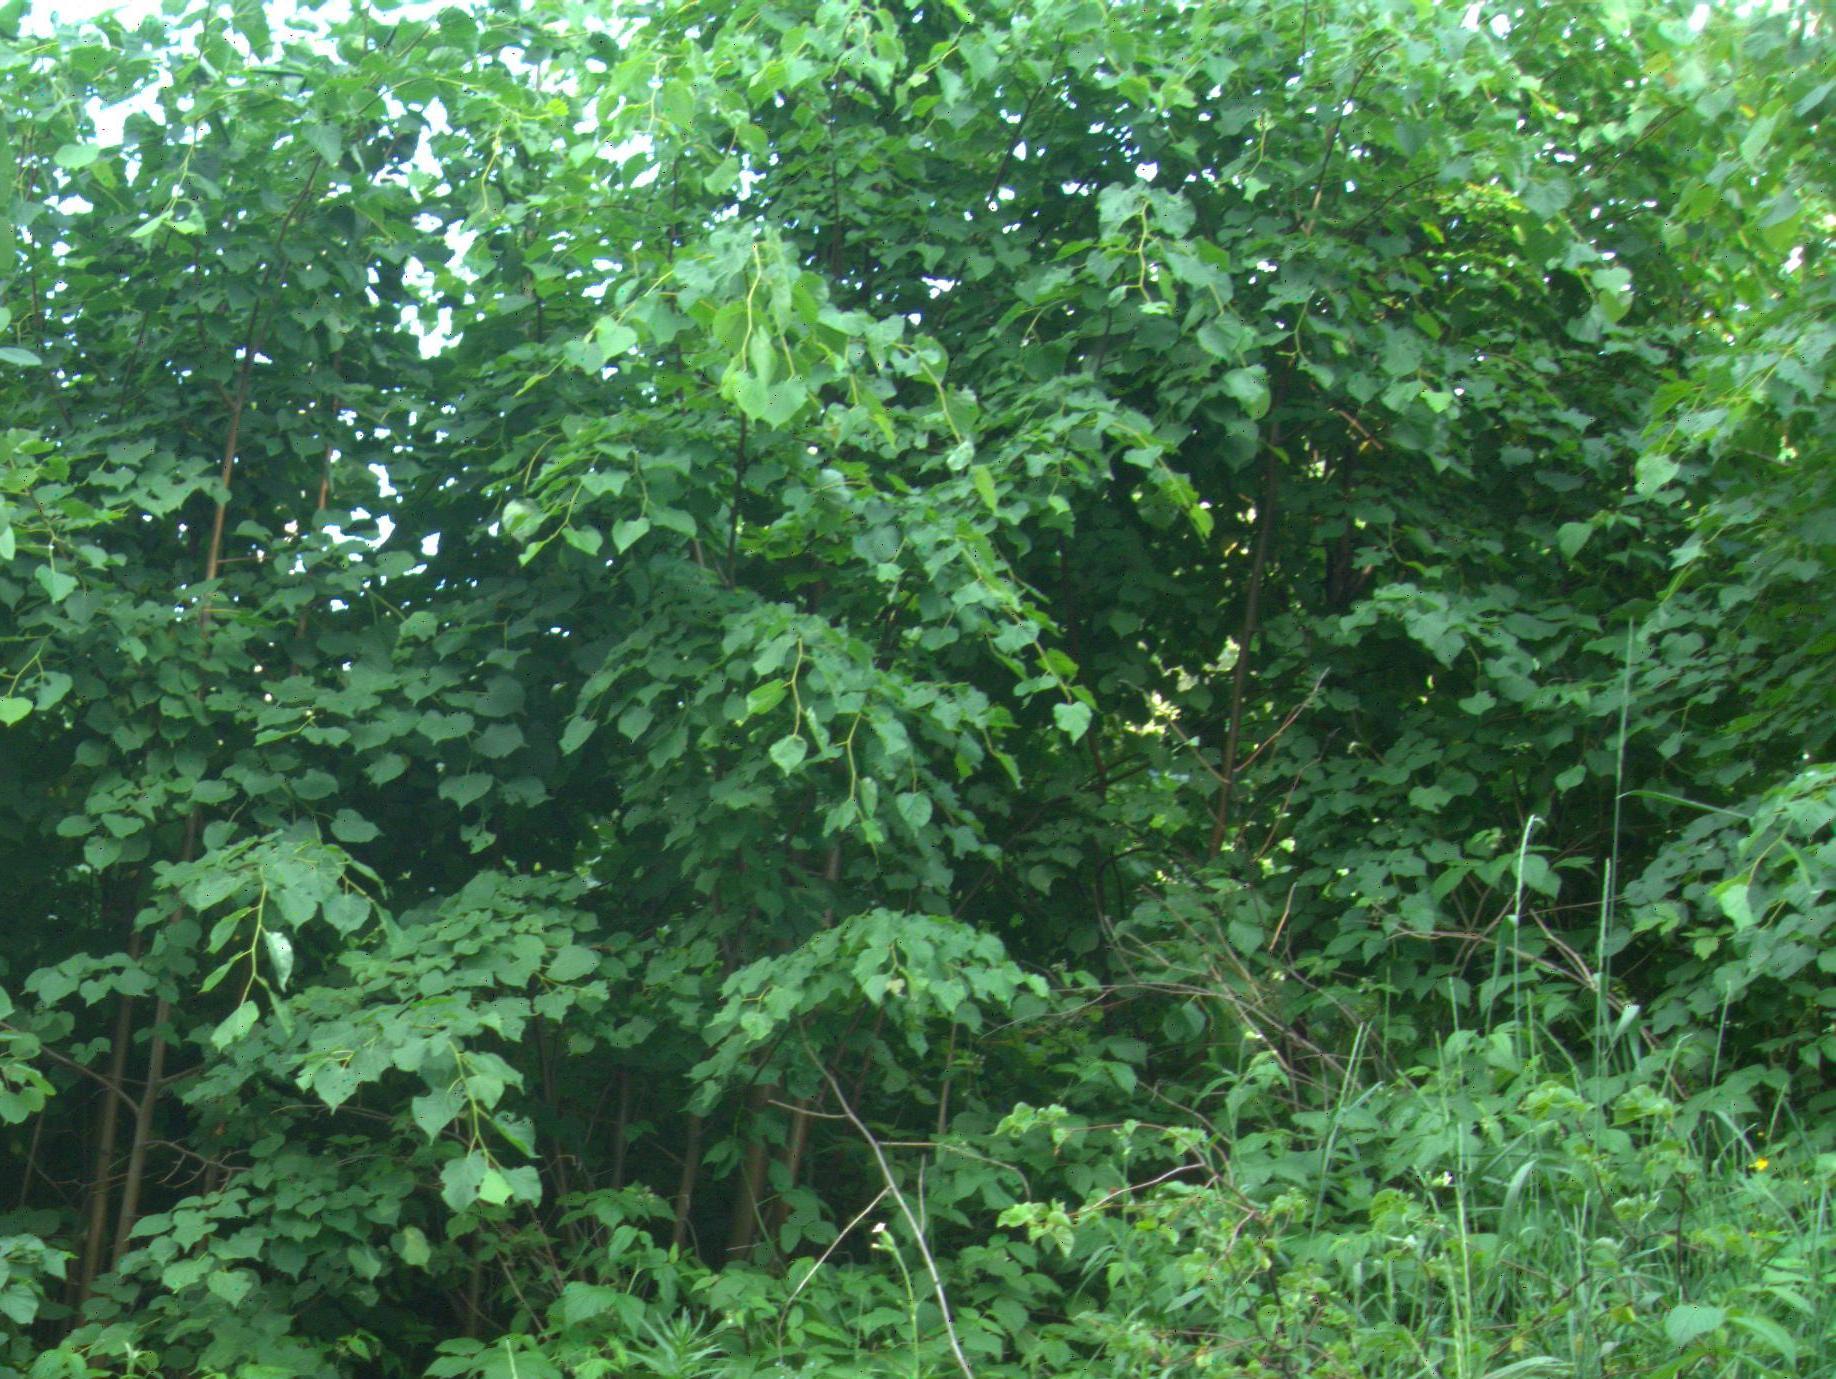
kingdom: Plantae
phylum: Tracheophyta
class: Magnoliopsida
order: Malvales
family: Malvaceae
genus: Tilia
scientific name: Tilia cordata
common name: Small-leaved lime
